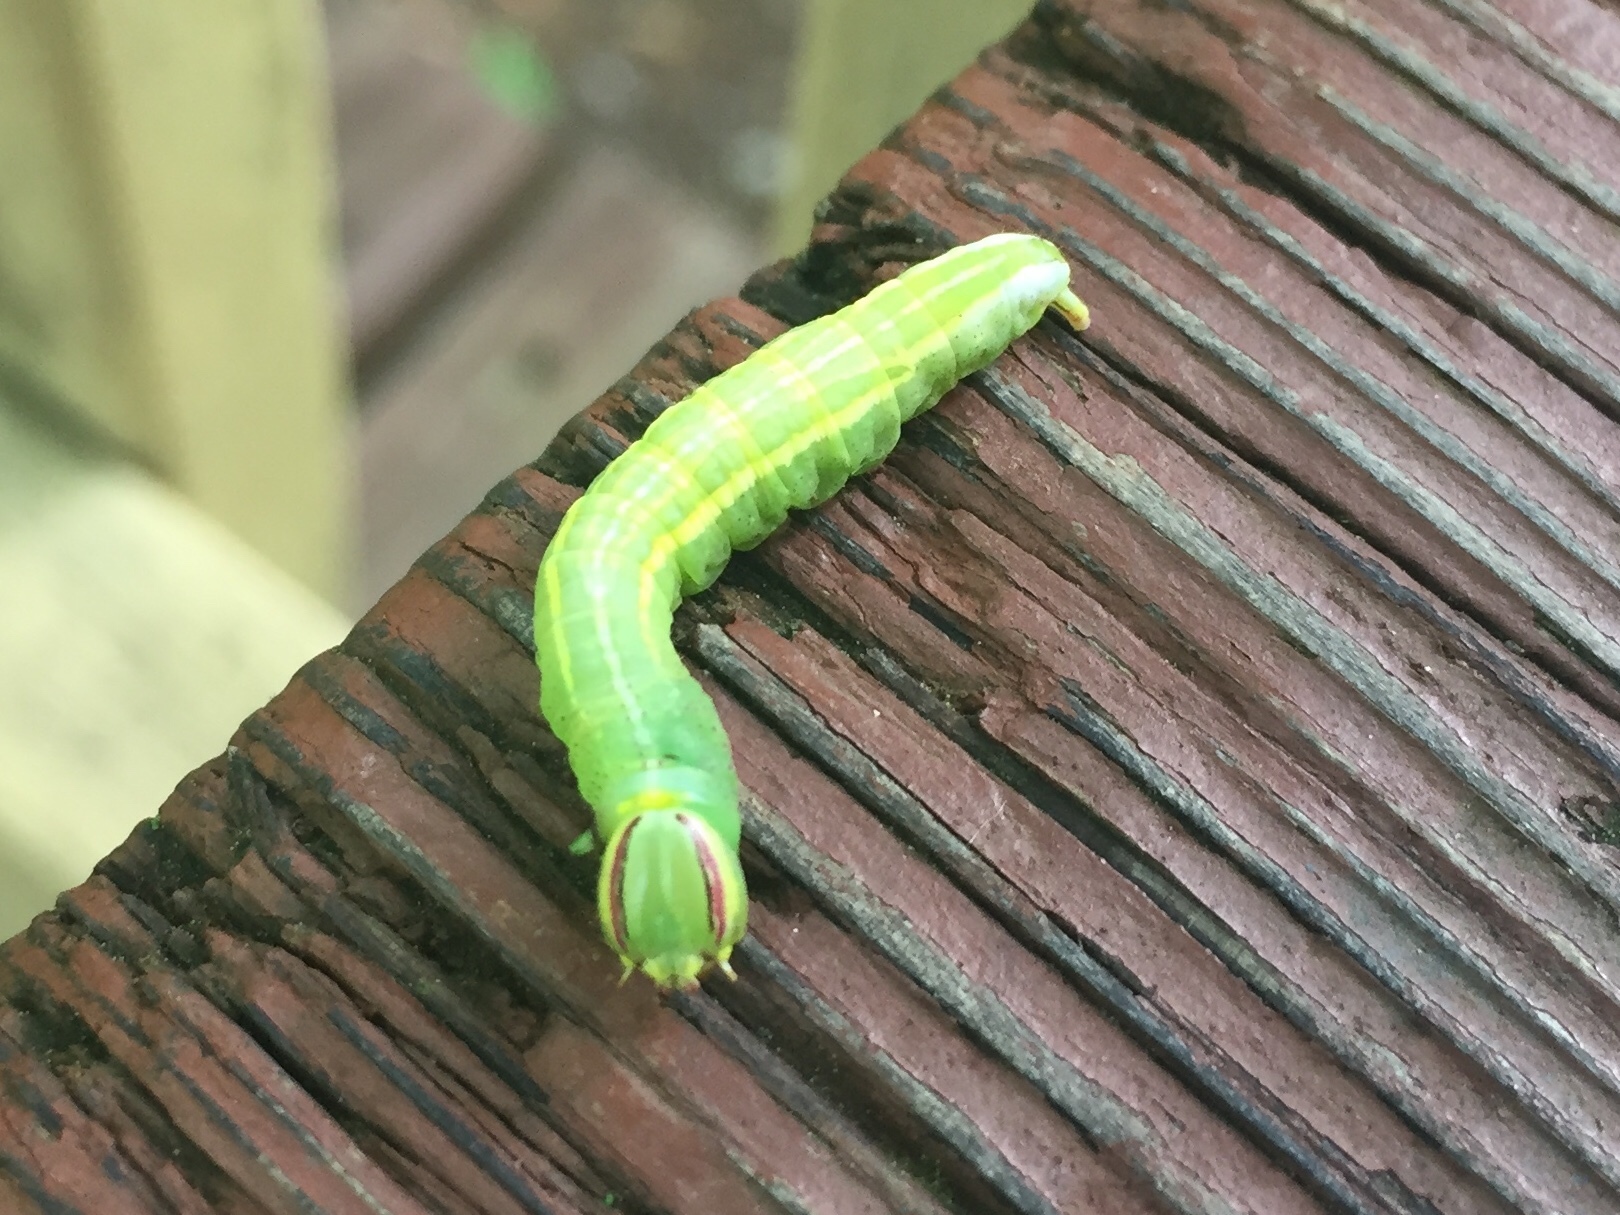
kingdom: Animalia
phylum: Arthropoda
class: Insecta
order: Lepidoptera
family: Notodontidae
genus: Disphragis
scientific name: Disphragis Cecrita guttivitta
